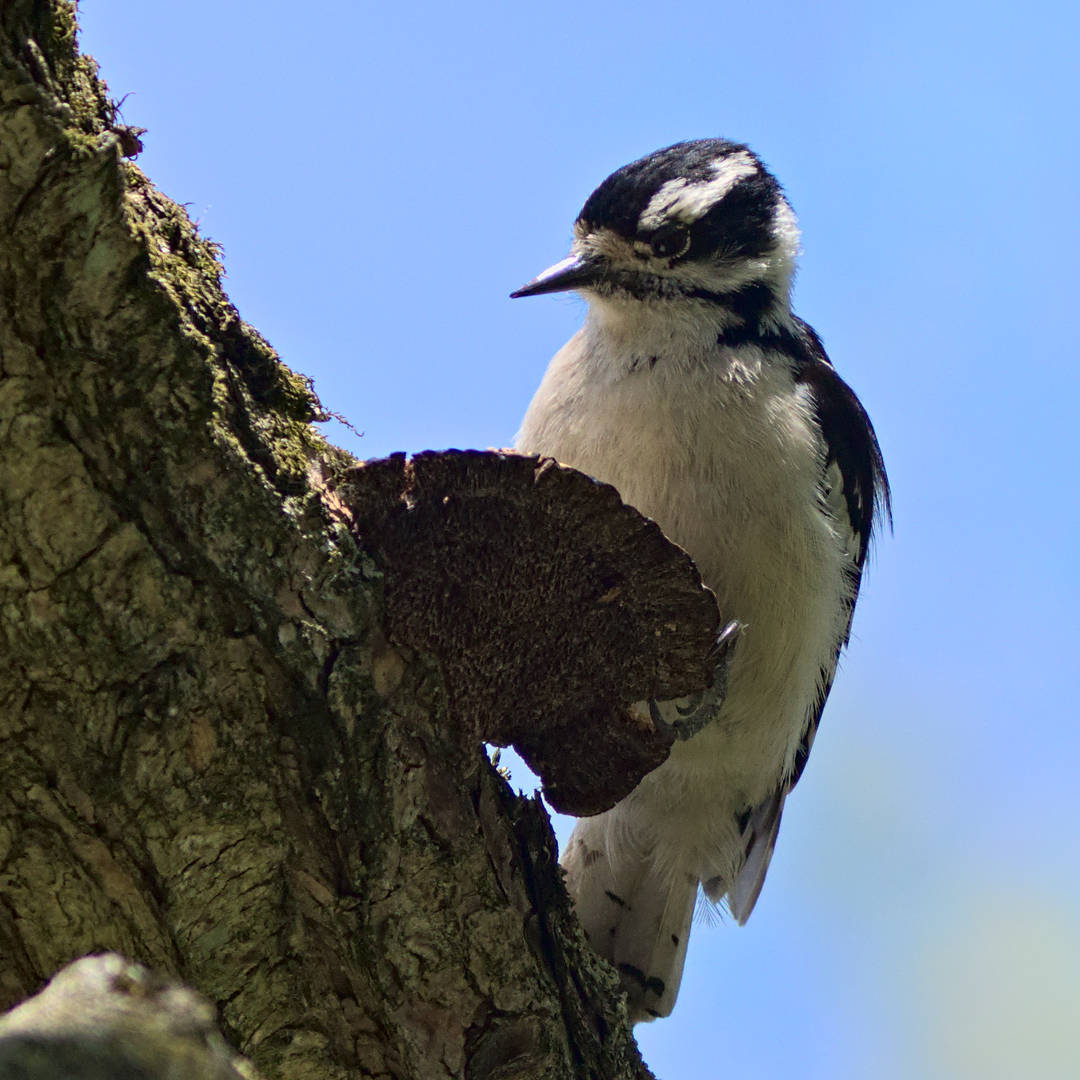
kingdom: Animalia
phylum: Chordata
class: Aves
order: Piciformes
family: Picidae
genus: Dryobates
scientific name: Dryobates pubescens
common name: Downy woodpecker
